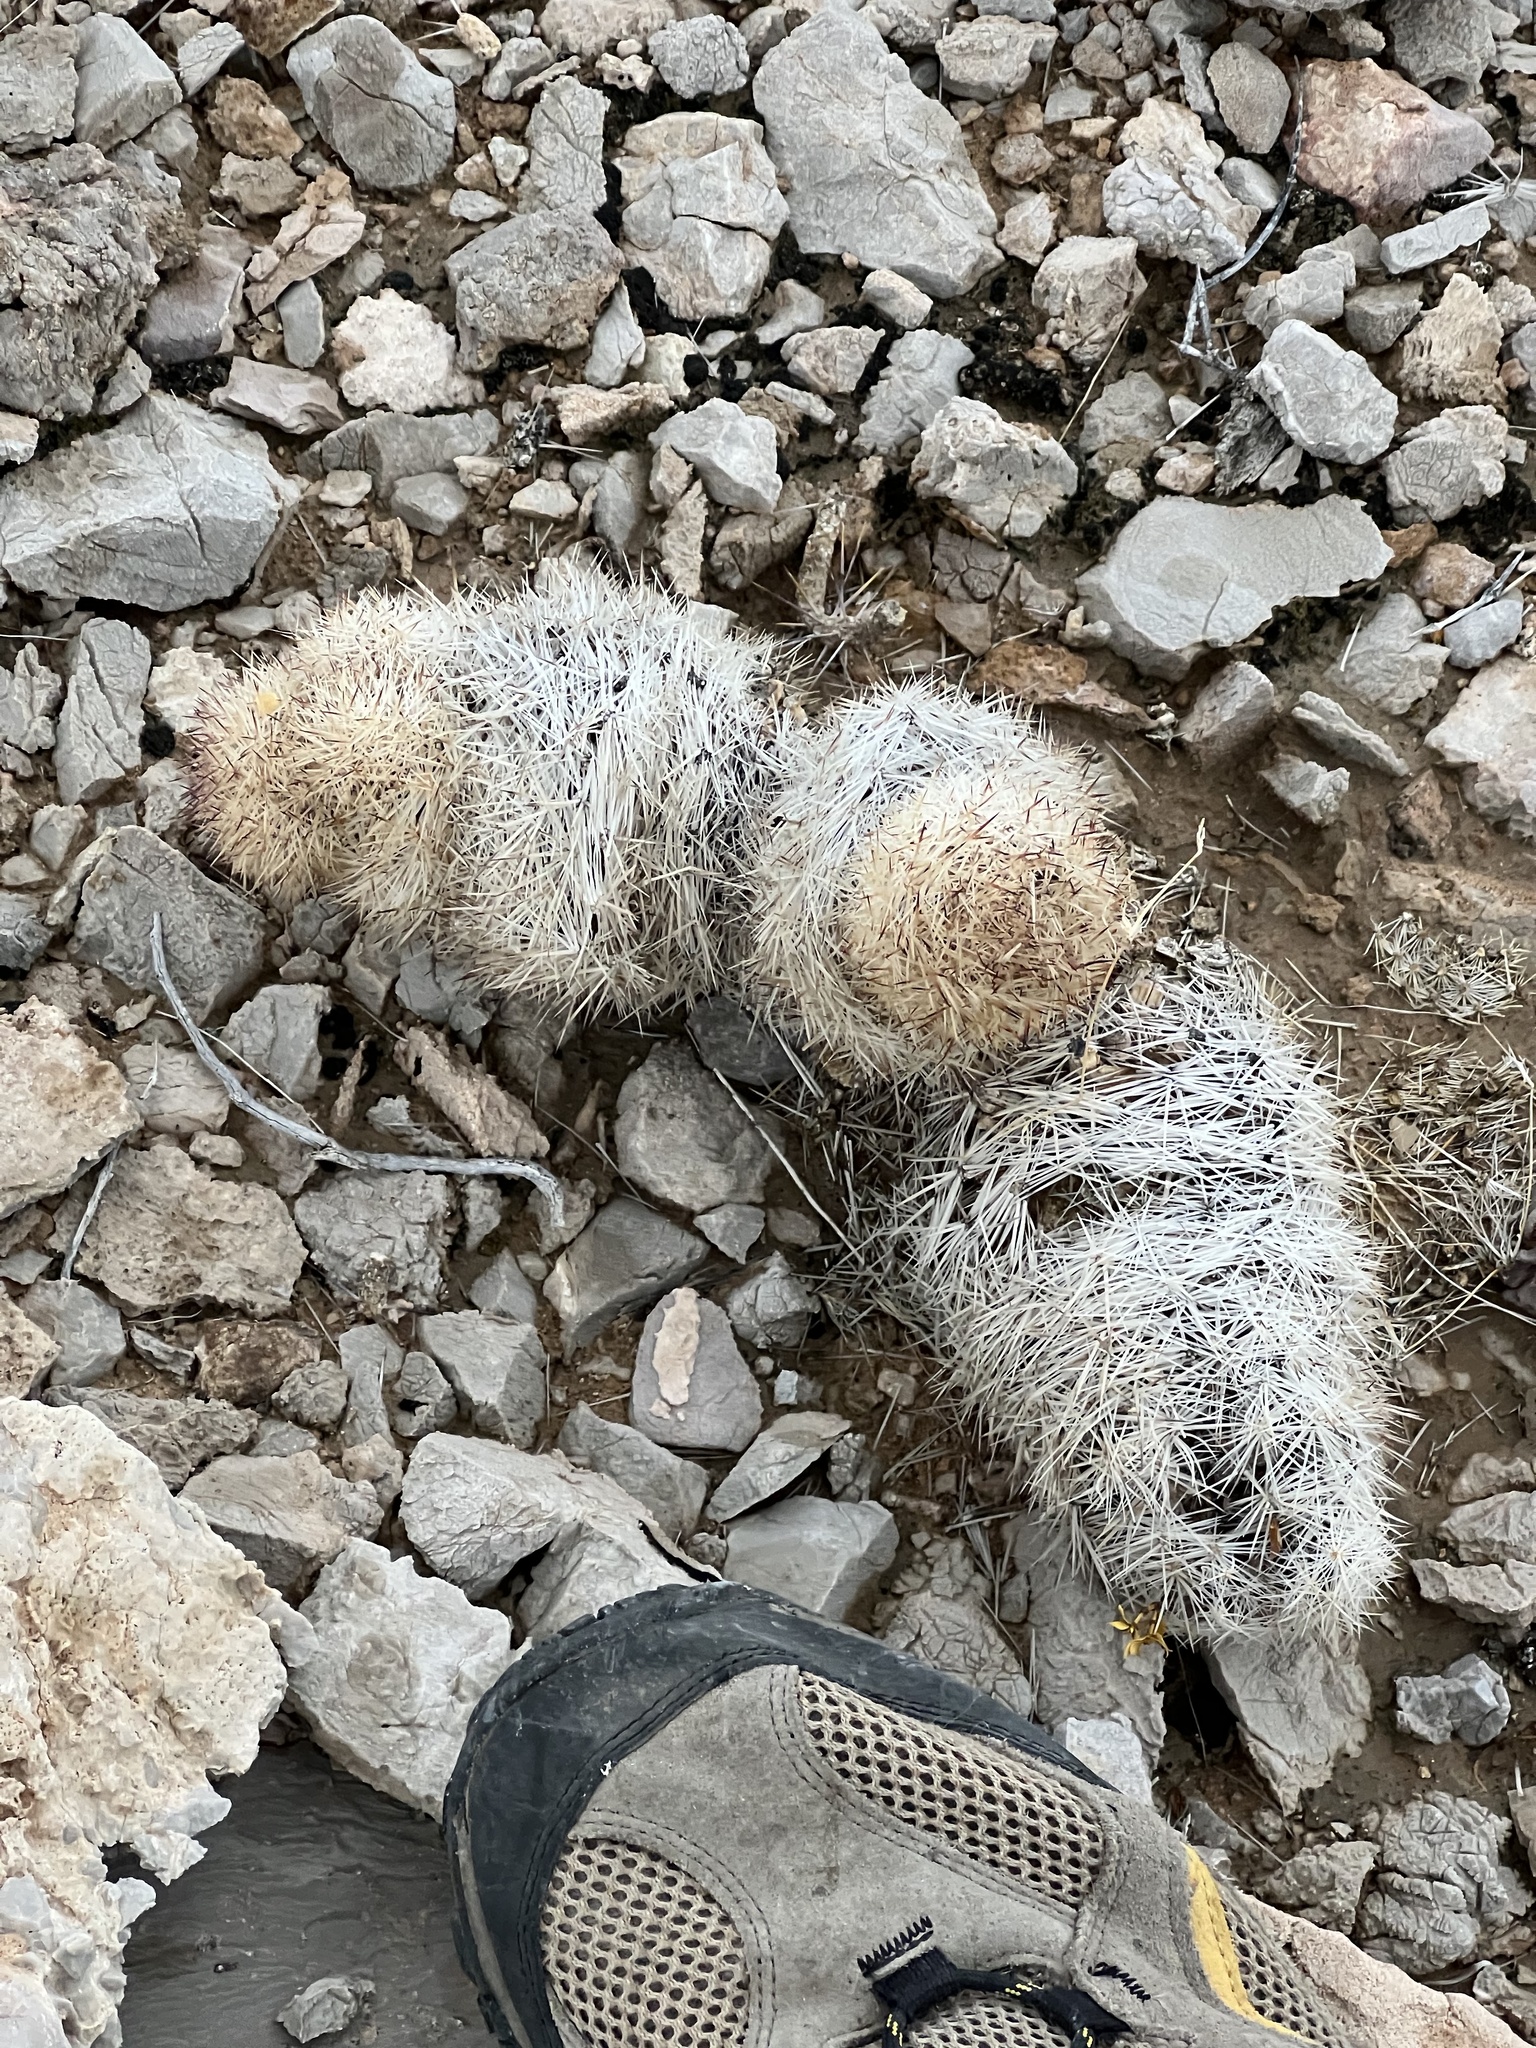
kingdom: Plantae
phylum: Tracheophyta
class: Magnoliopsida
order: Caryophyllales
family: Cactaceae
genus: Pelecyphora
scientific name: Pelecyphora dasyacantha
